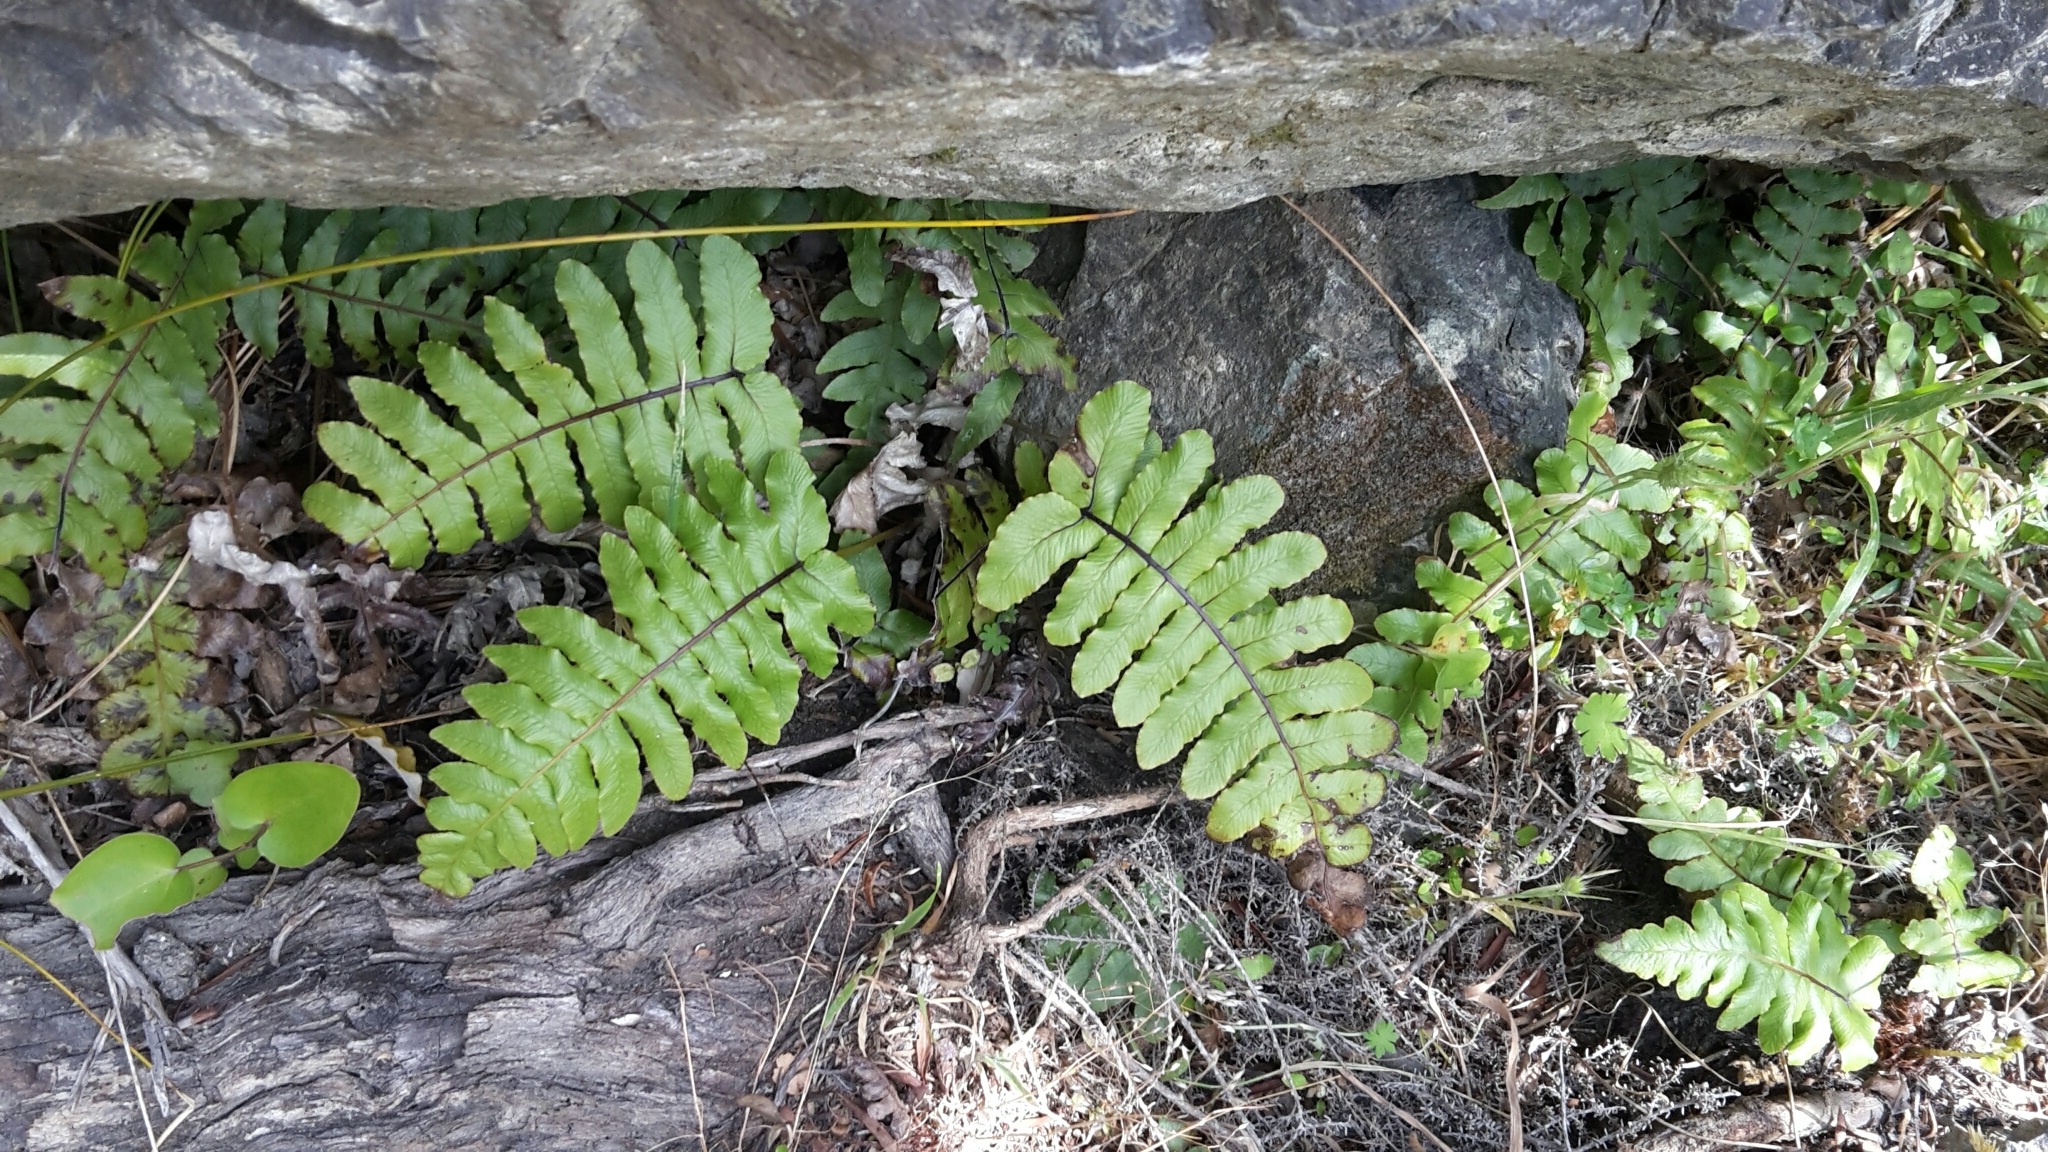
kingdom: Plantae
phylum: Tracheophyta
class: Polypodiopsida
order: Polypodiales
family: Blechnaceae
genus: Cranfillia
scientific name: Cranfillia deltoides
